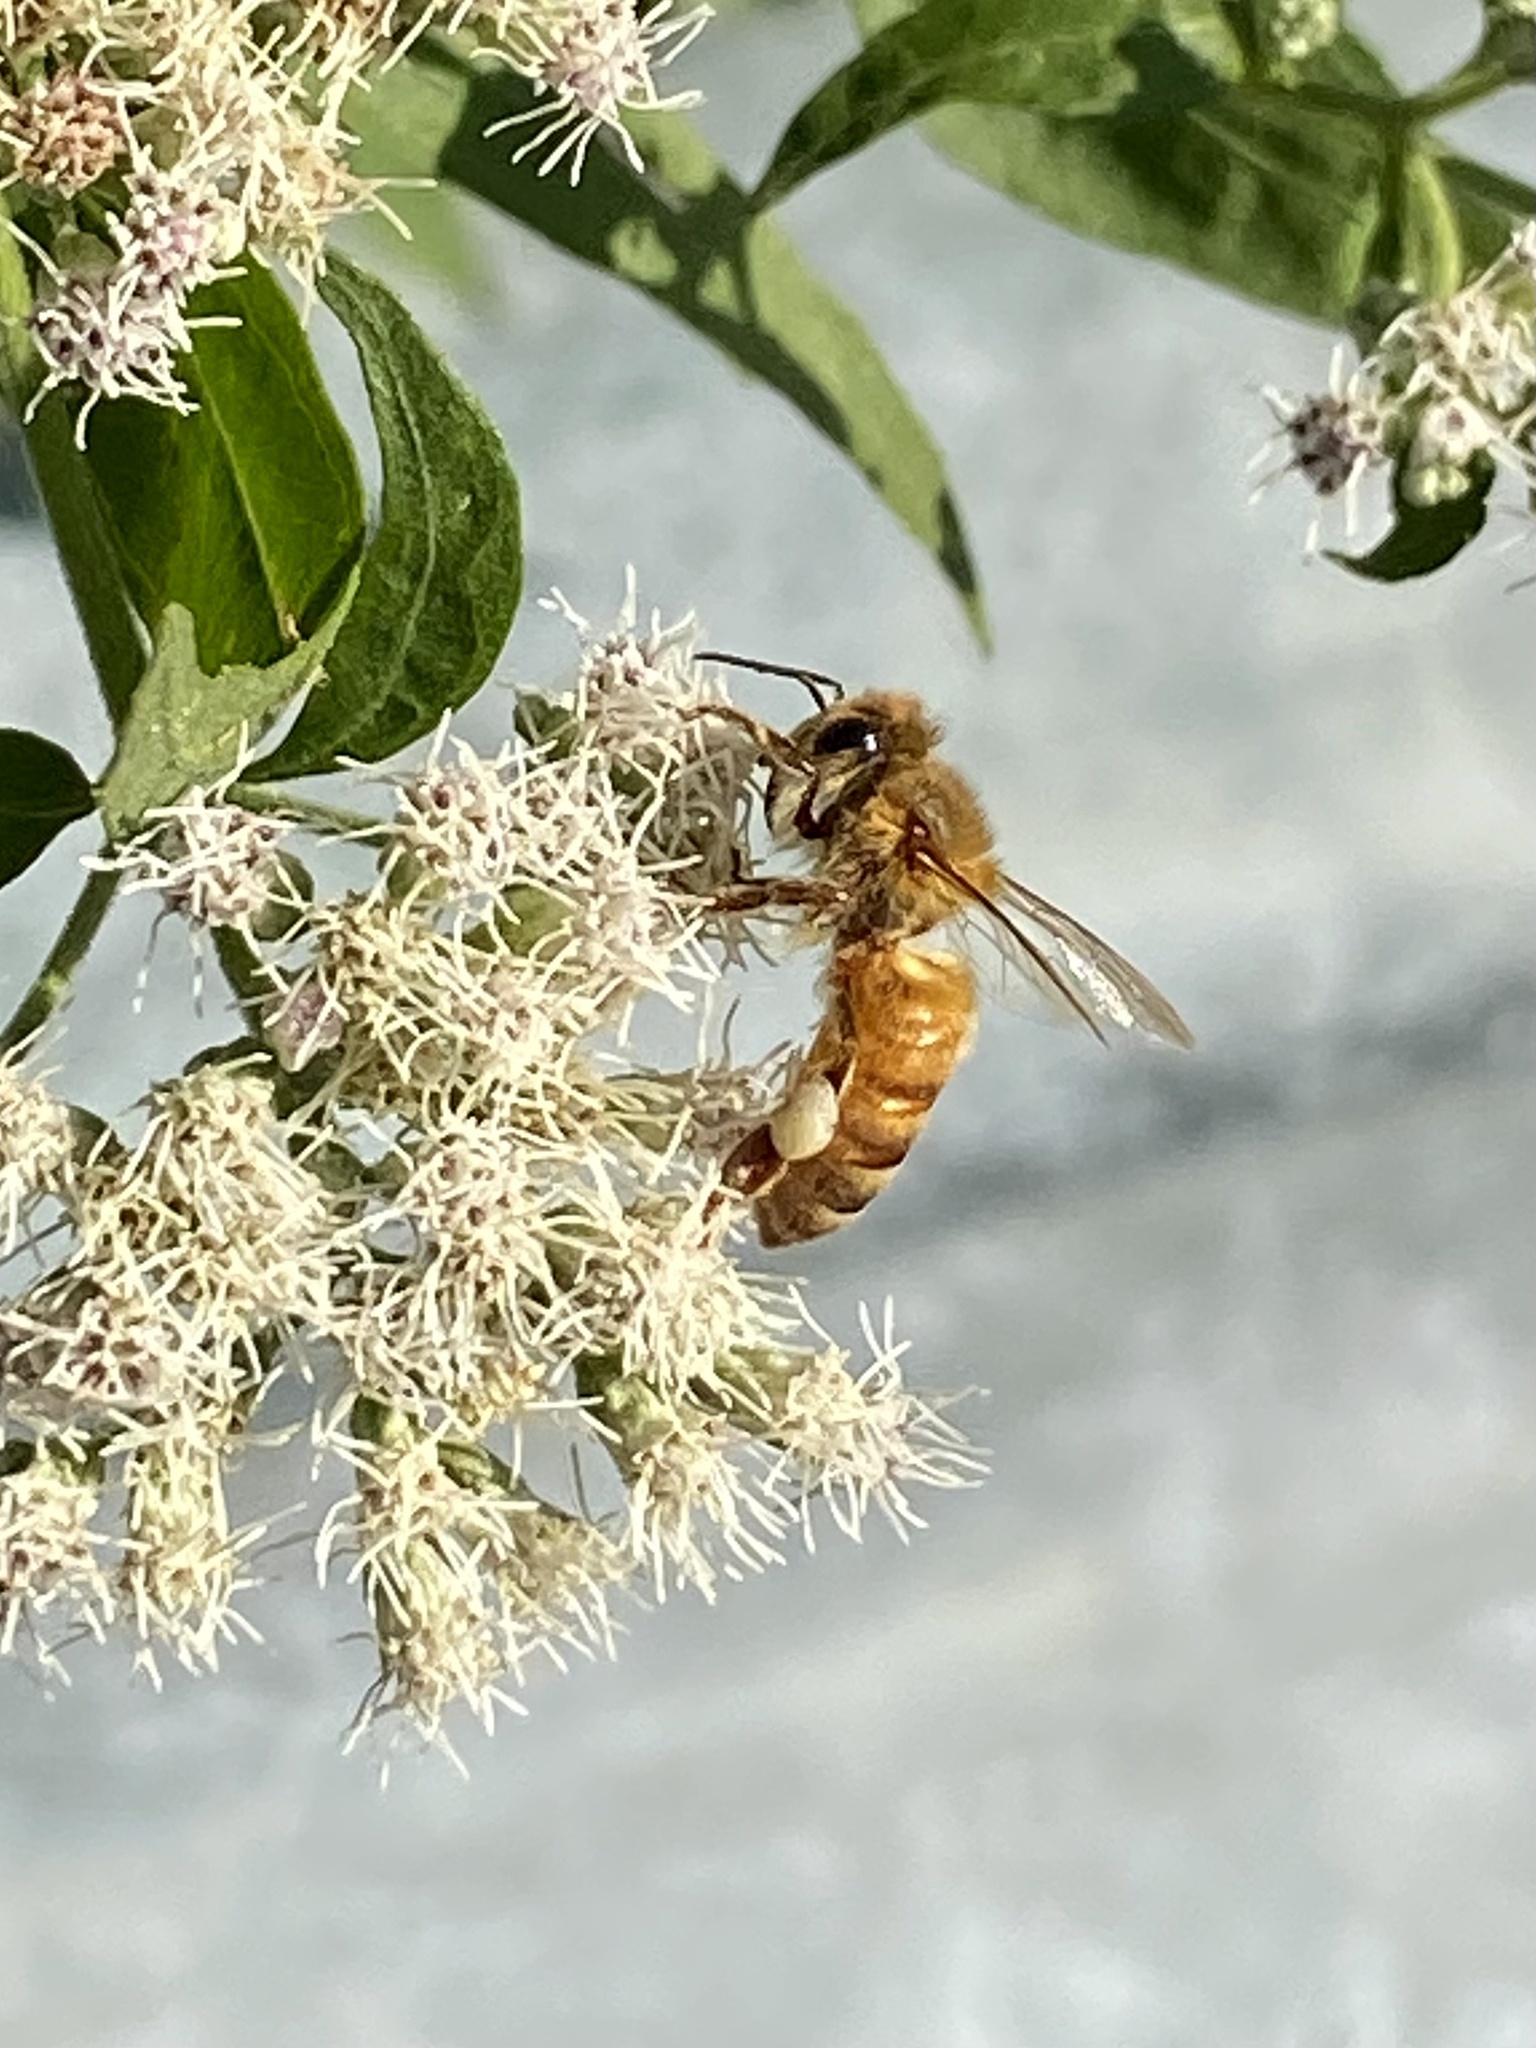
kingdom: Animalia
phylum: Arthropoda
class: Insecta
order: Hymenoptera
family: Apidae
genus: Apis
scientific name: Apis mellifera
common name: Honey bee
